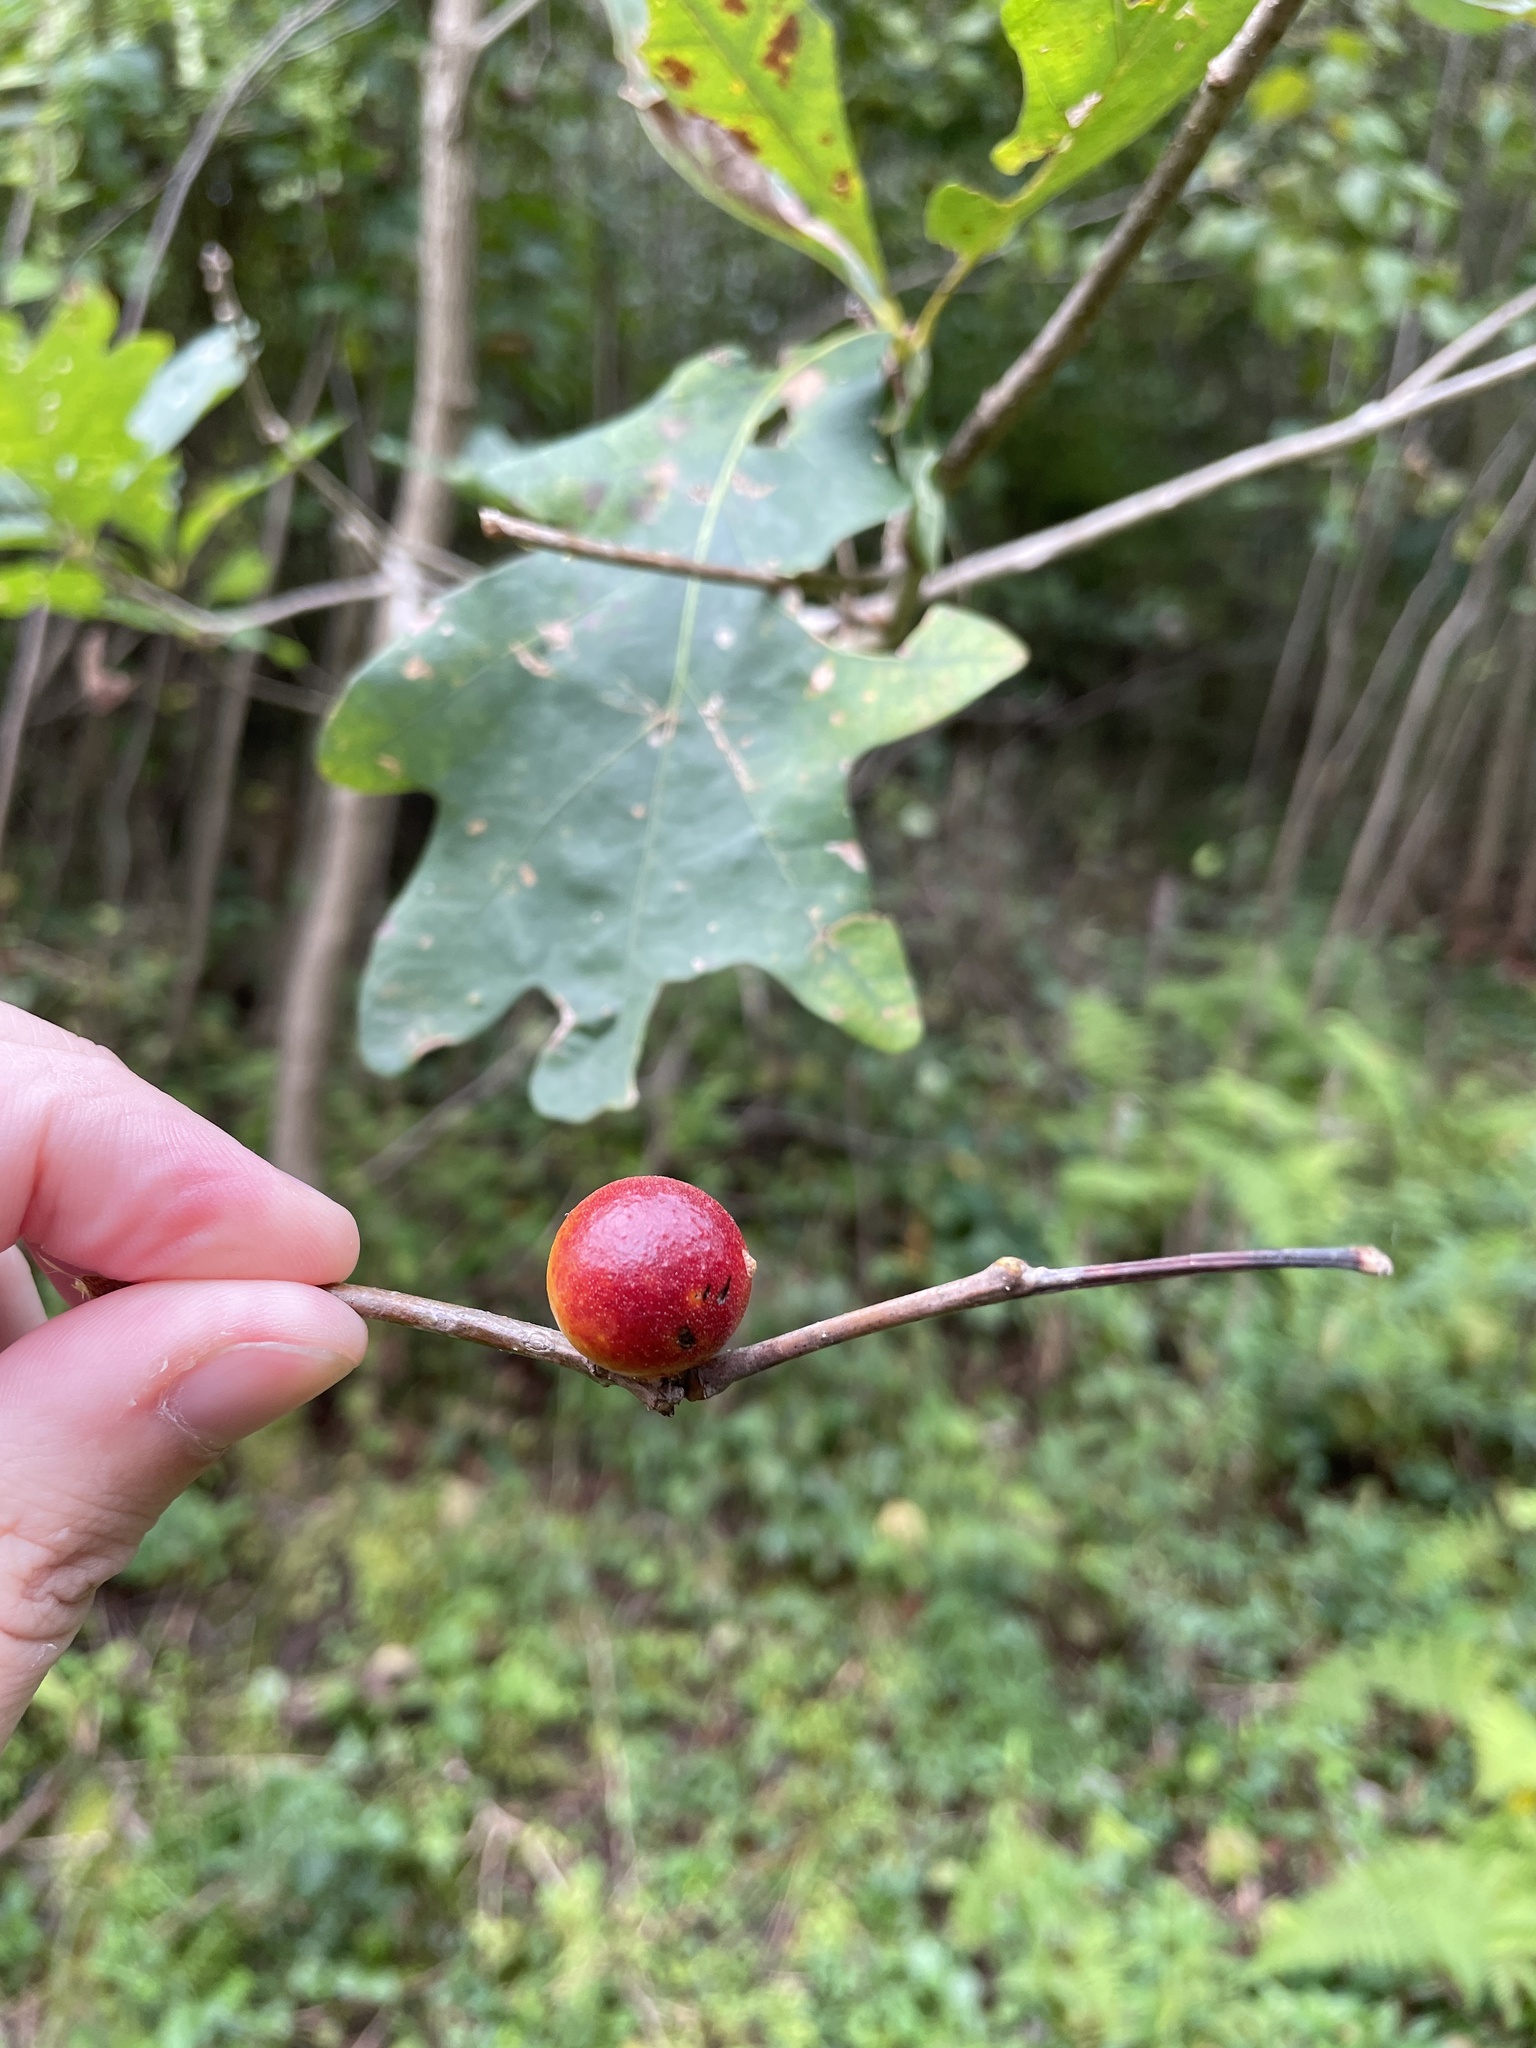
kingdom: Animalia
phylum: Arthropoda
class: Insecta
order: Hymenoptera
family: Cynipidae
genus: Disholcaspis
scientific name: Disholcaspis quercusglobulus
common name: Round bullet gall wasp
